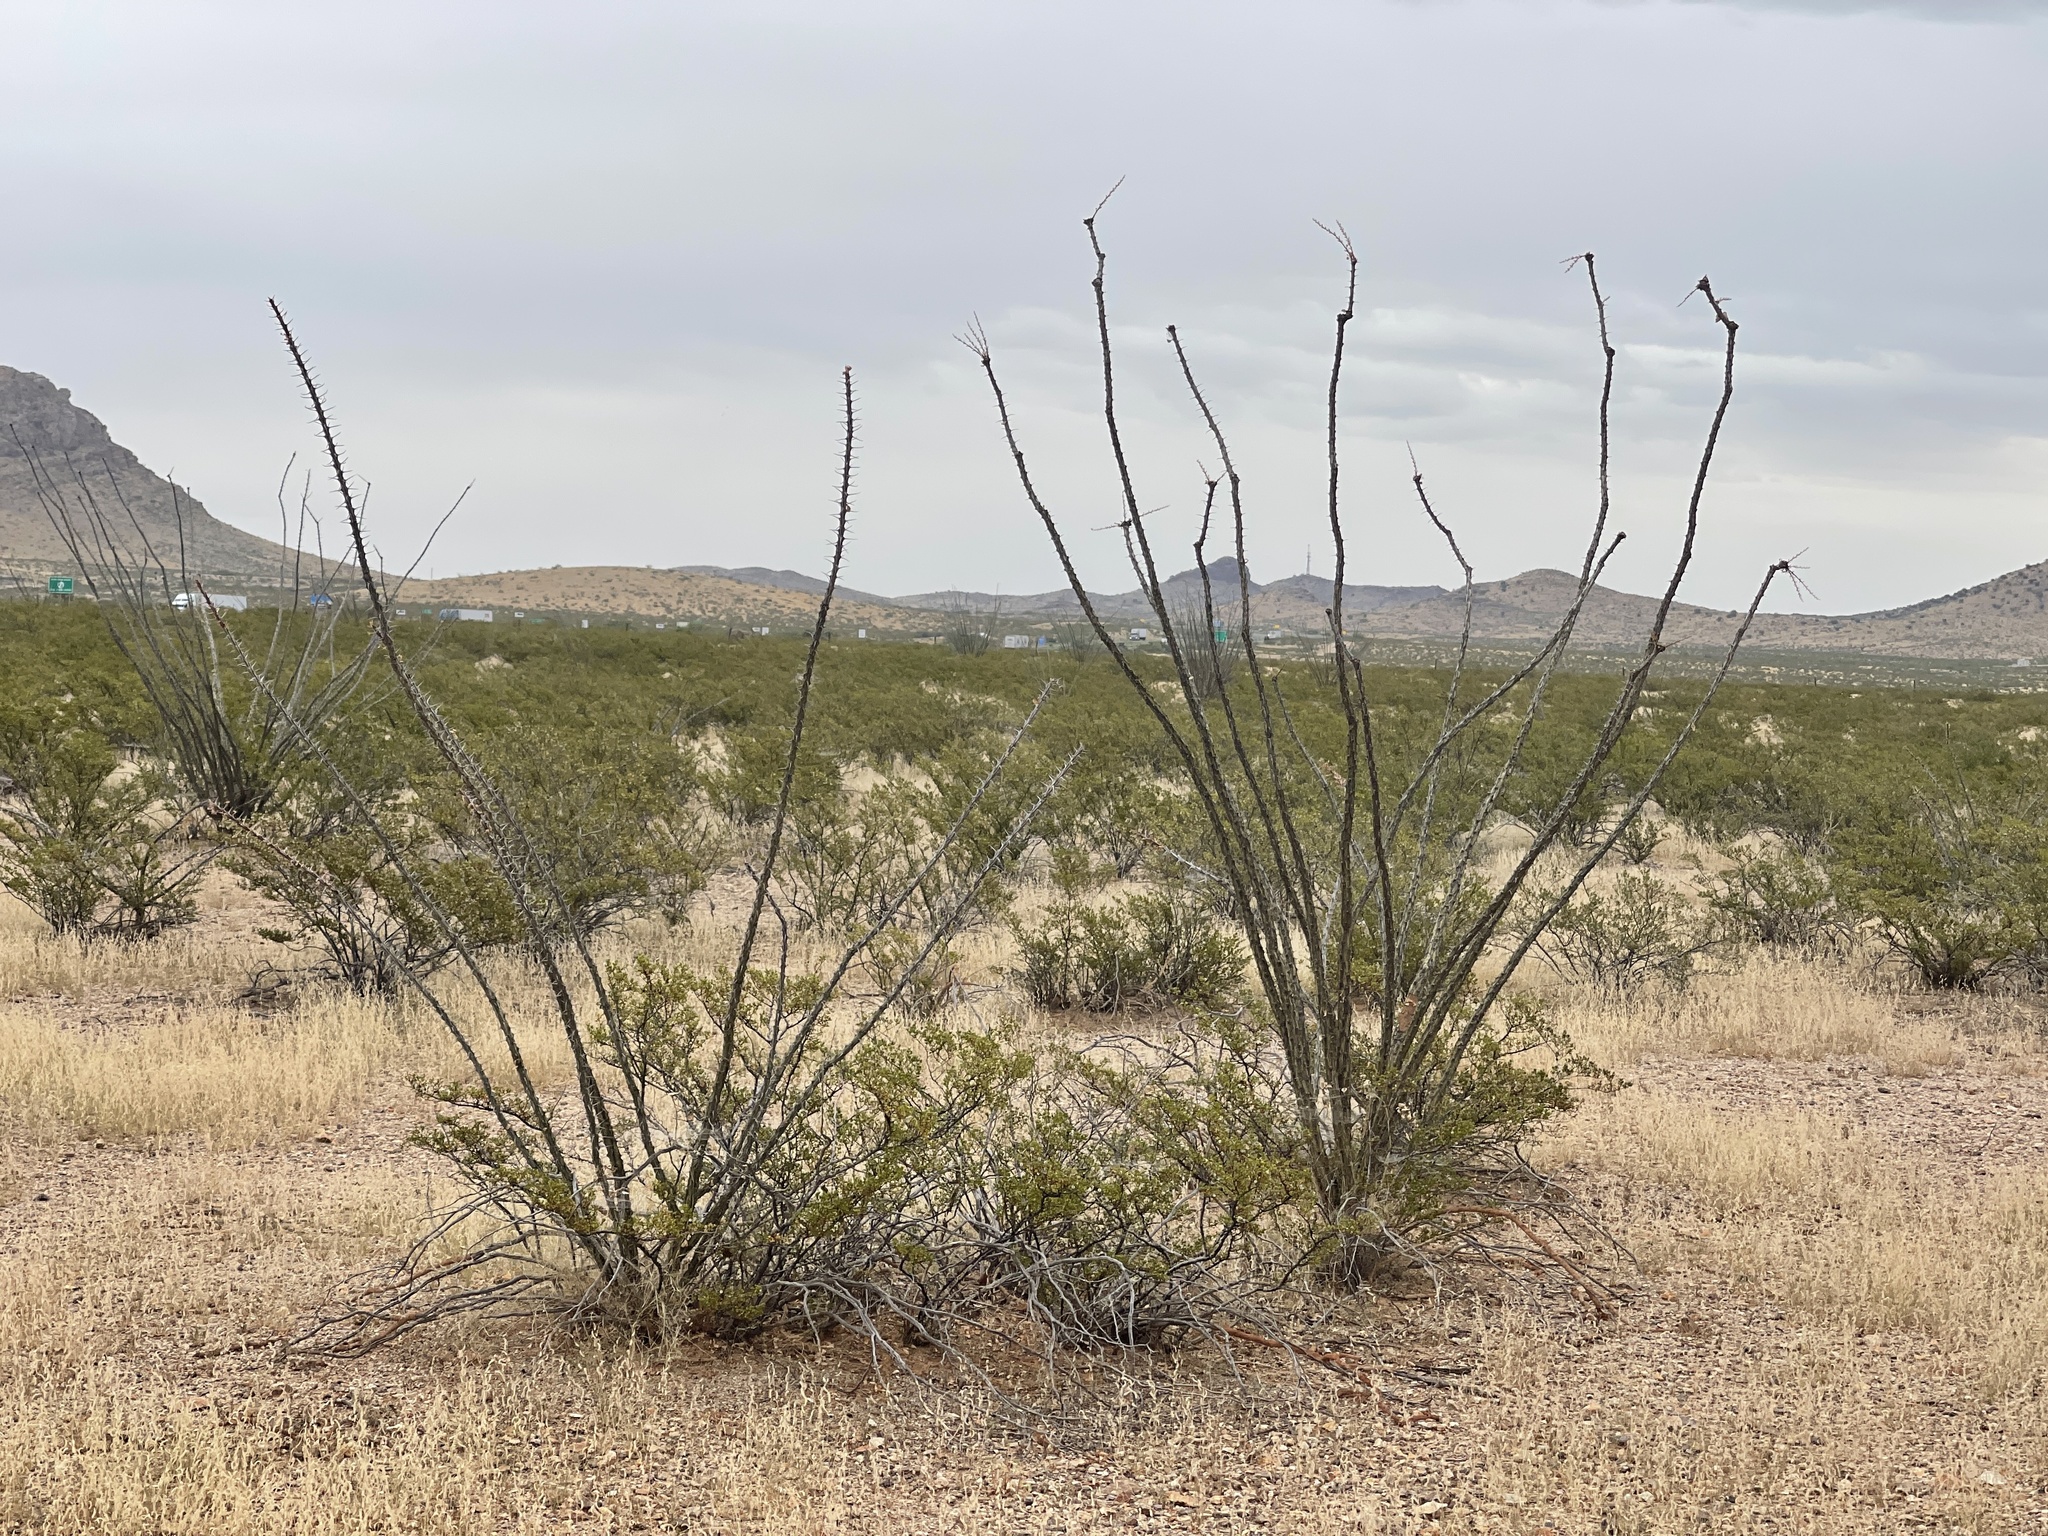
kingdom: Plantae
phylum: Tracheophyta
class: Magnoliopsida
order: Ericales
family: Fouquieriaceae
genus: Fouquieria
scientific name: Fouquieria splendens
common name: Vine-cactus
